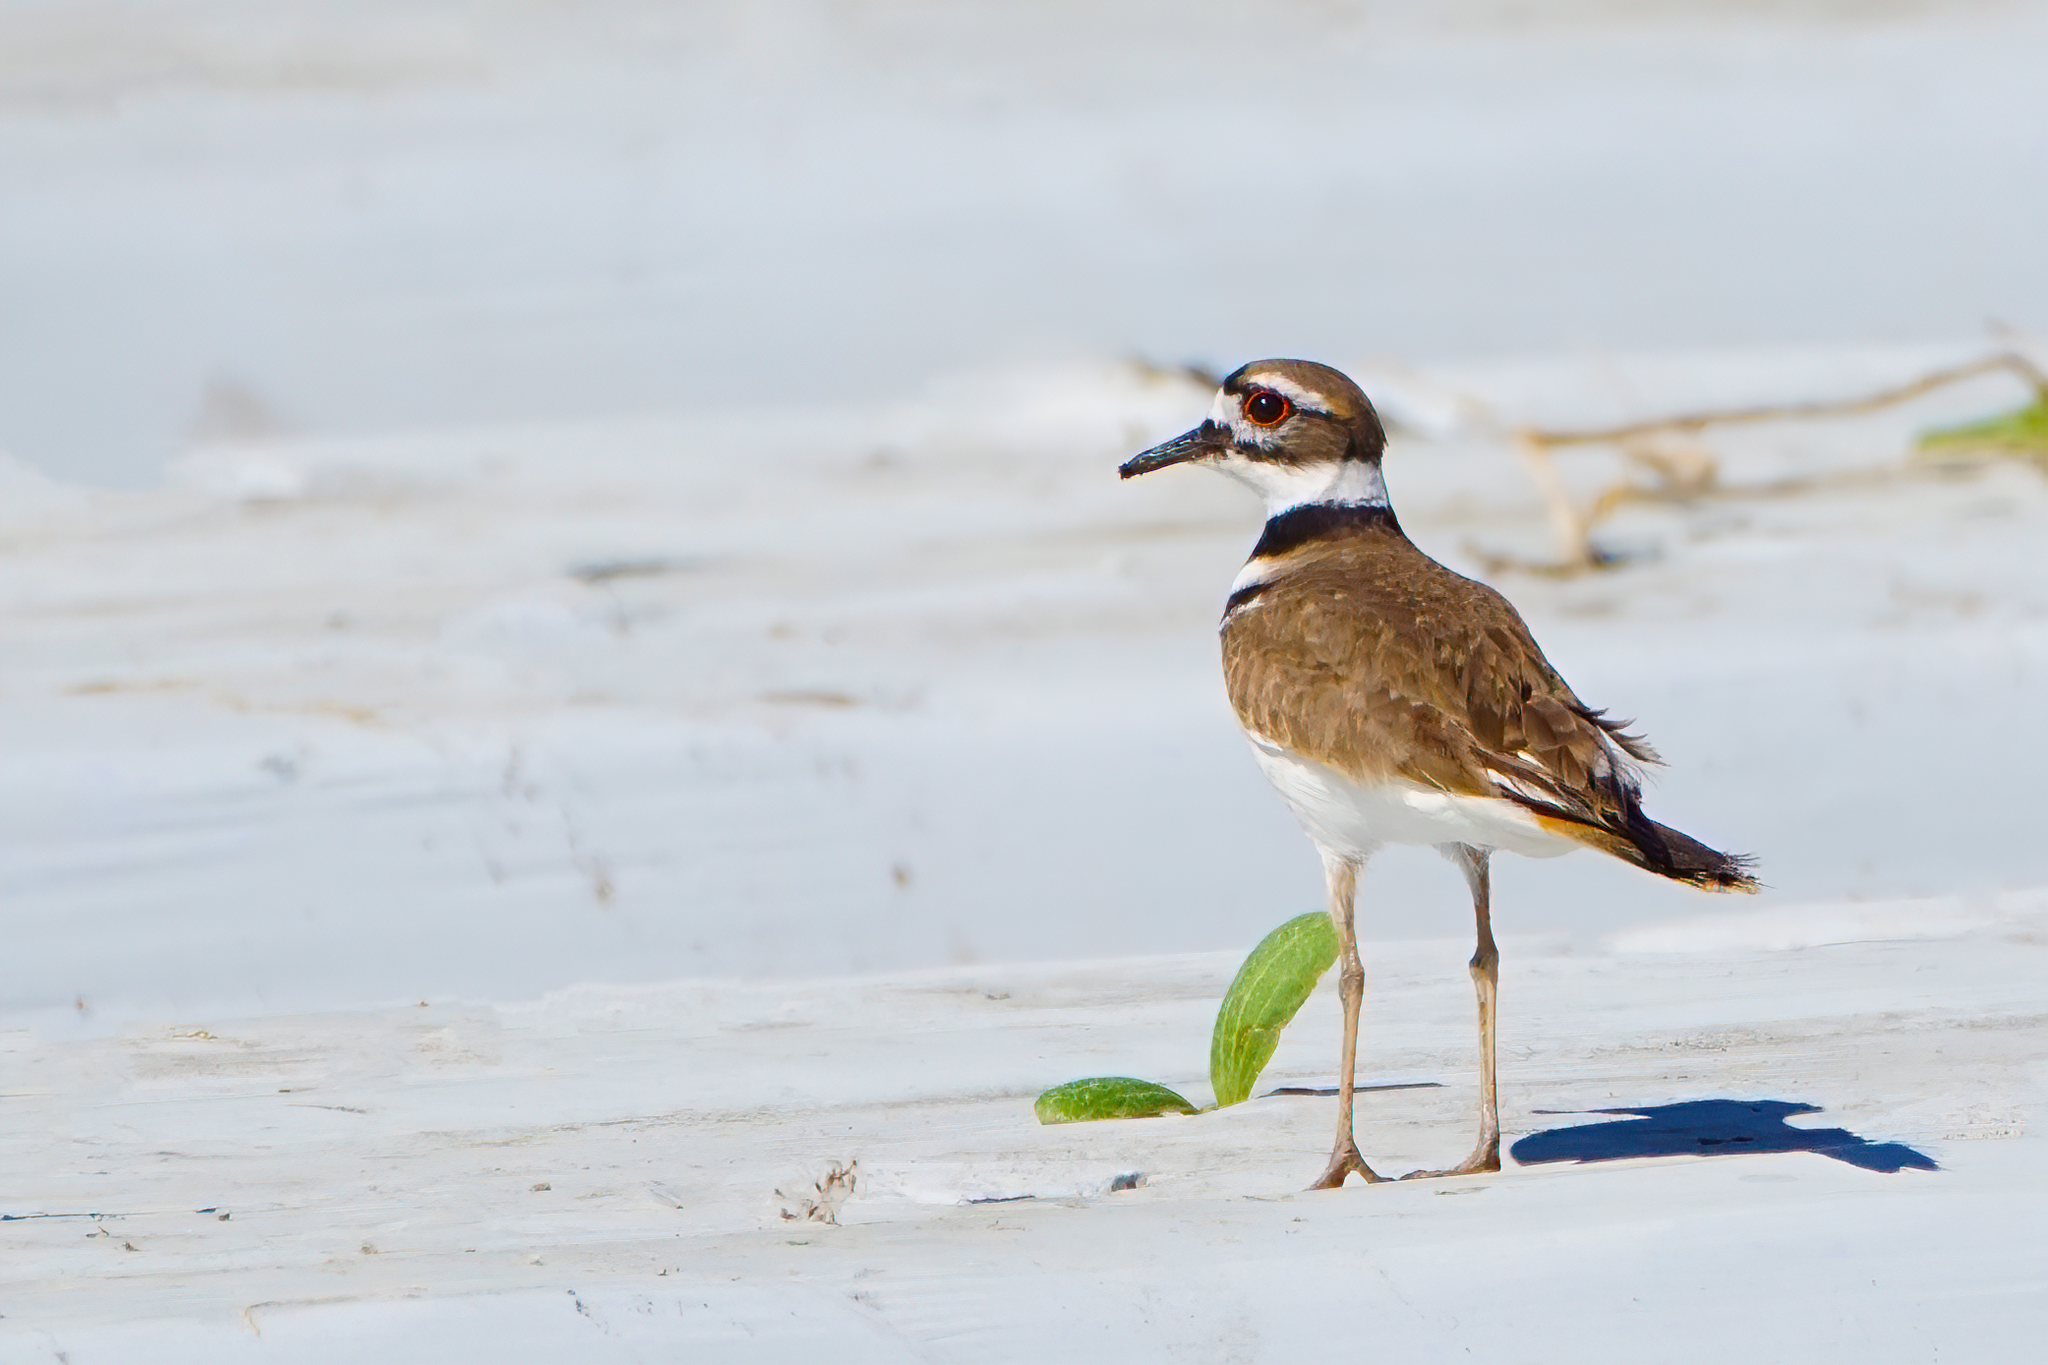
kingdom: Animalia
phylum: Chordata
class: Aves
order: Charadriiformes
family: Charadriidae
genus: Charadrius
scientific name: Charadrius vociferus
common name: Killdeer
